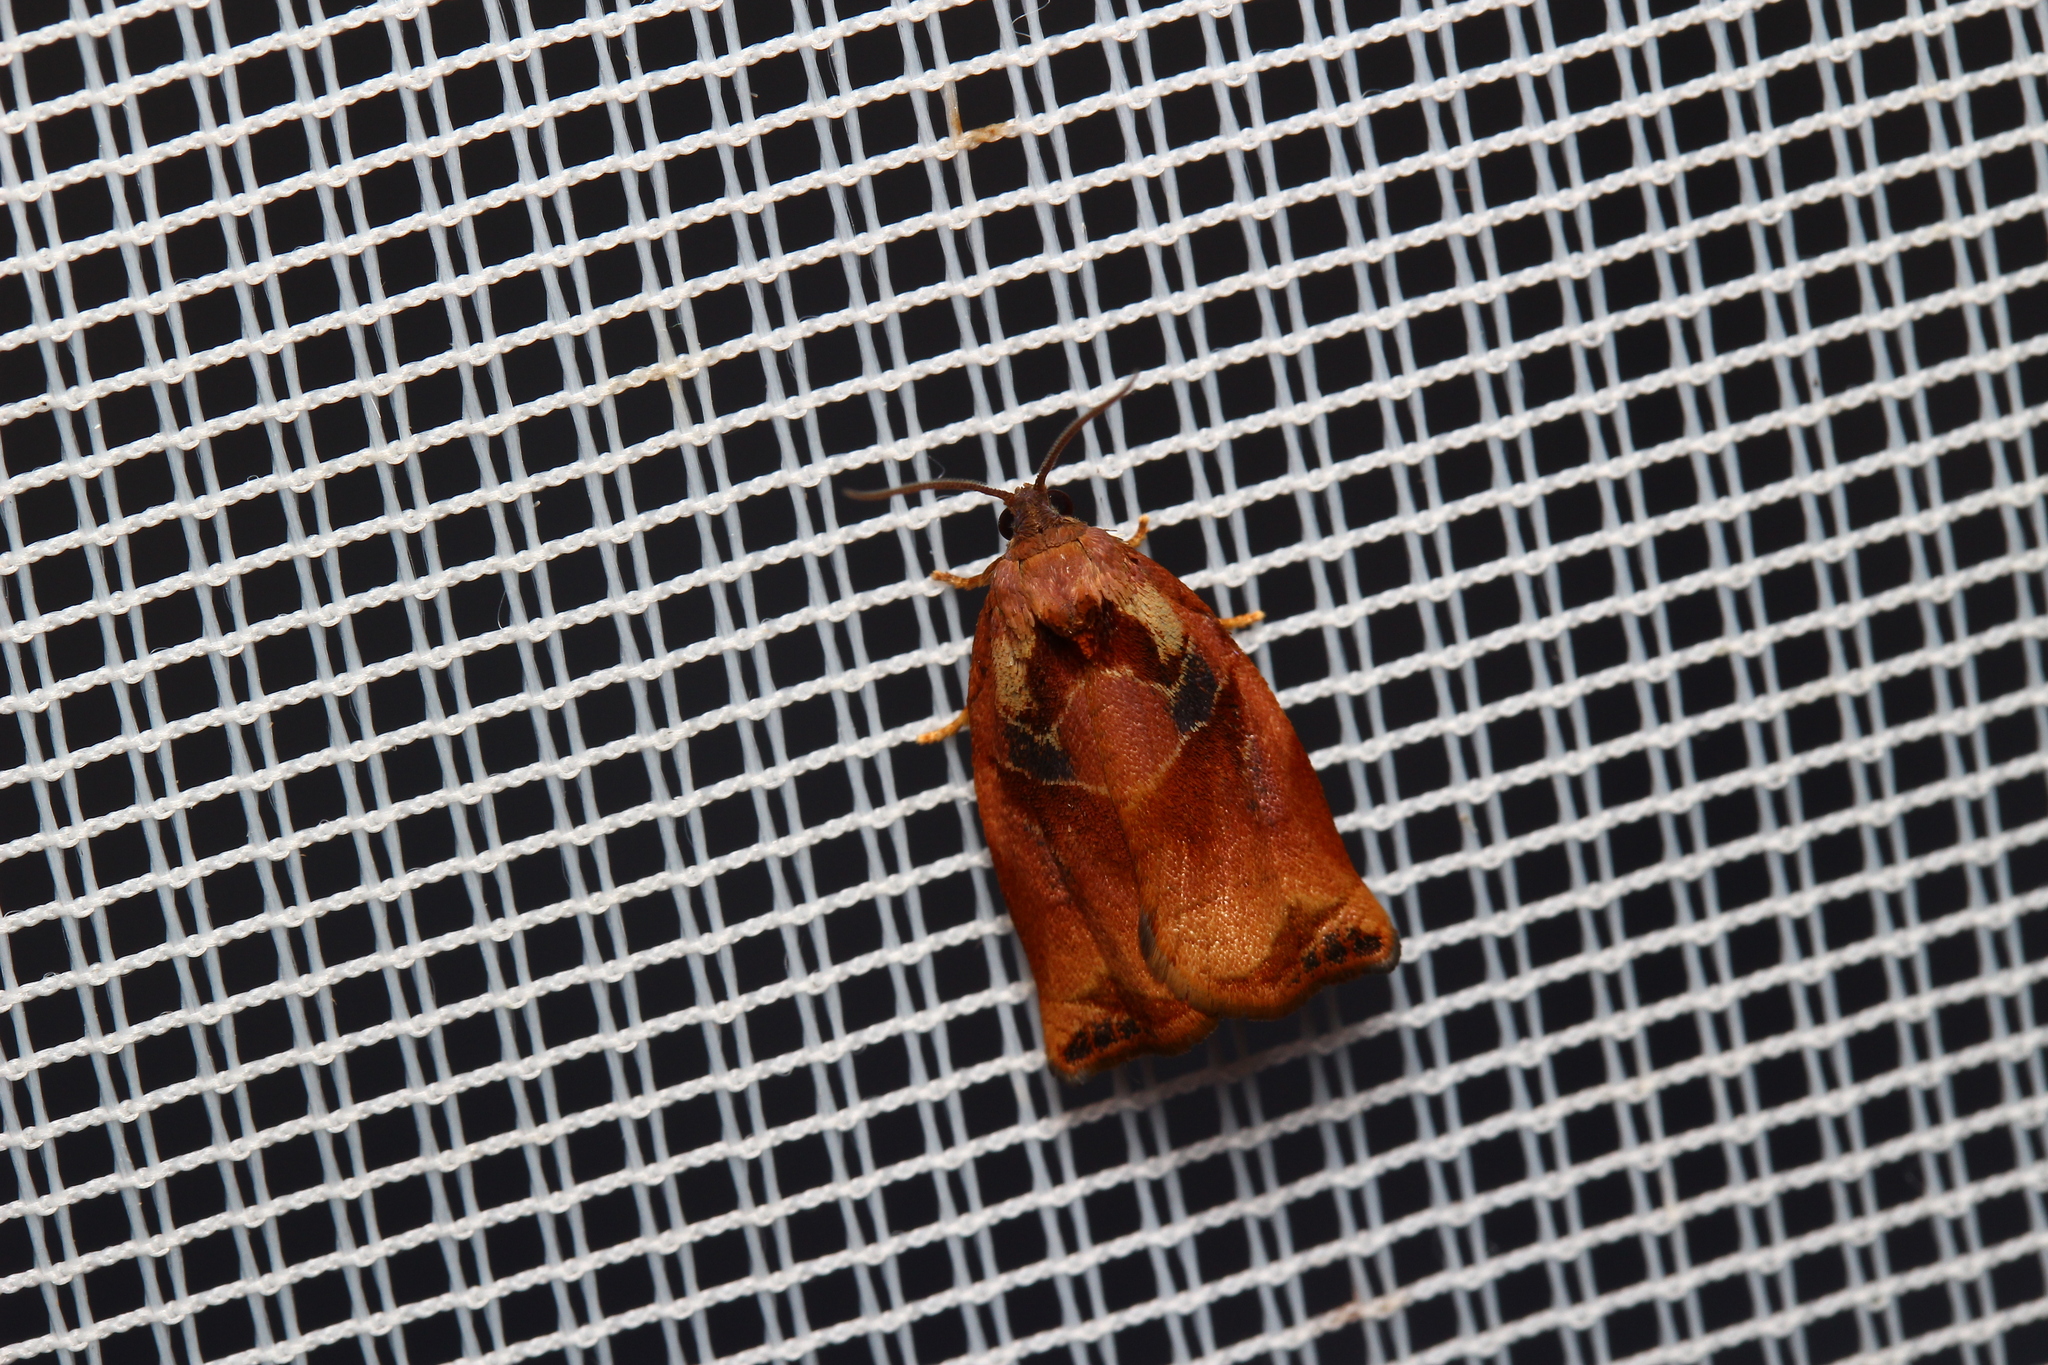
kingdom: Animalia
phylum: Arthropoda
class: Insecta
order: Lepidoptera
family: Tortricidae
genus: Archips
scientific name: Archips podana
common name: Large fruit-tree tortrix
